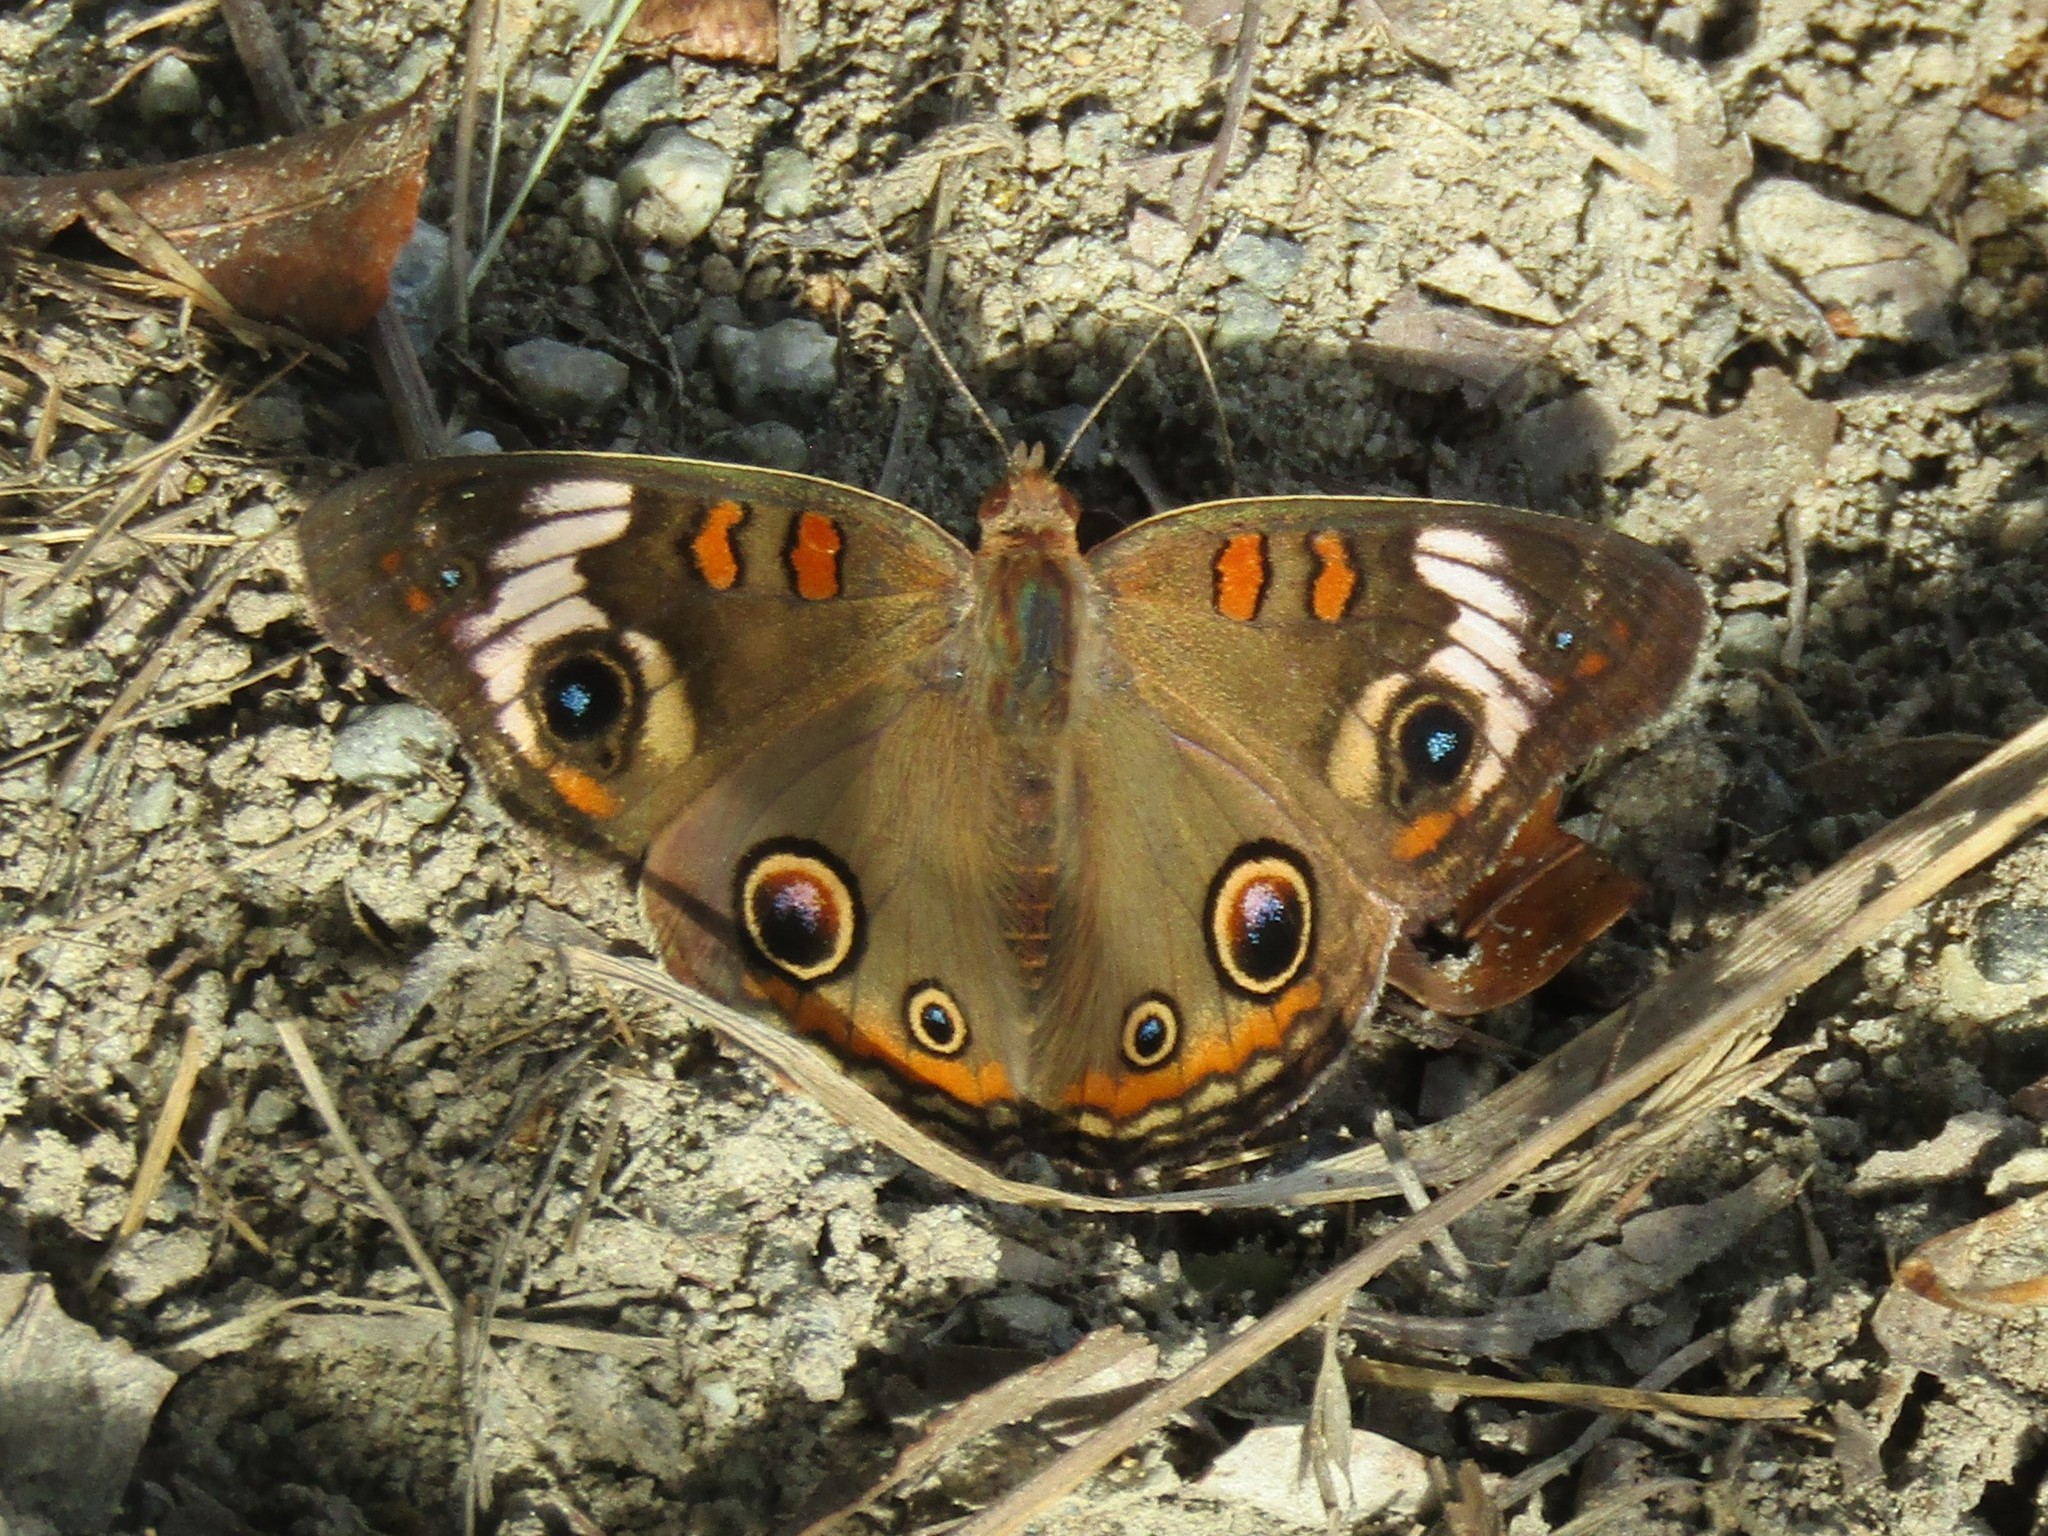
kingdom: Animalia
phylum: Arthropoda
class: Insecta
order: Lepidoptera
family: Nymphalidae
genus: Junonia
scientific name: Junonia coenia
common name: Common buckeye
